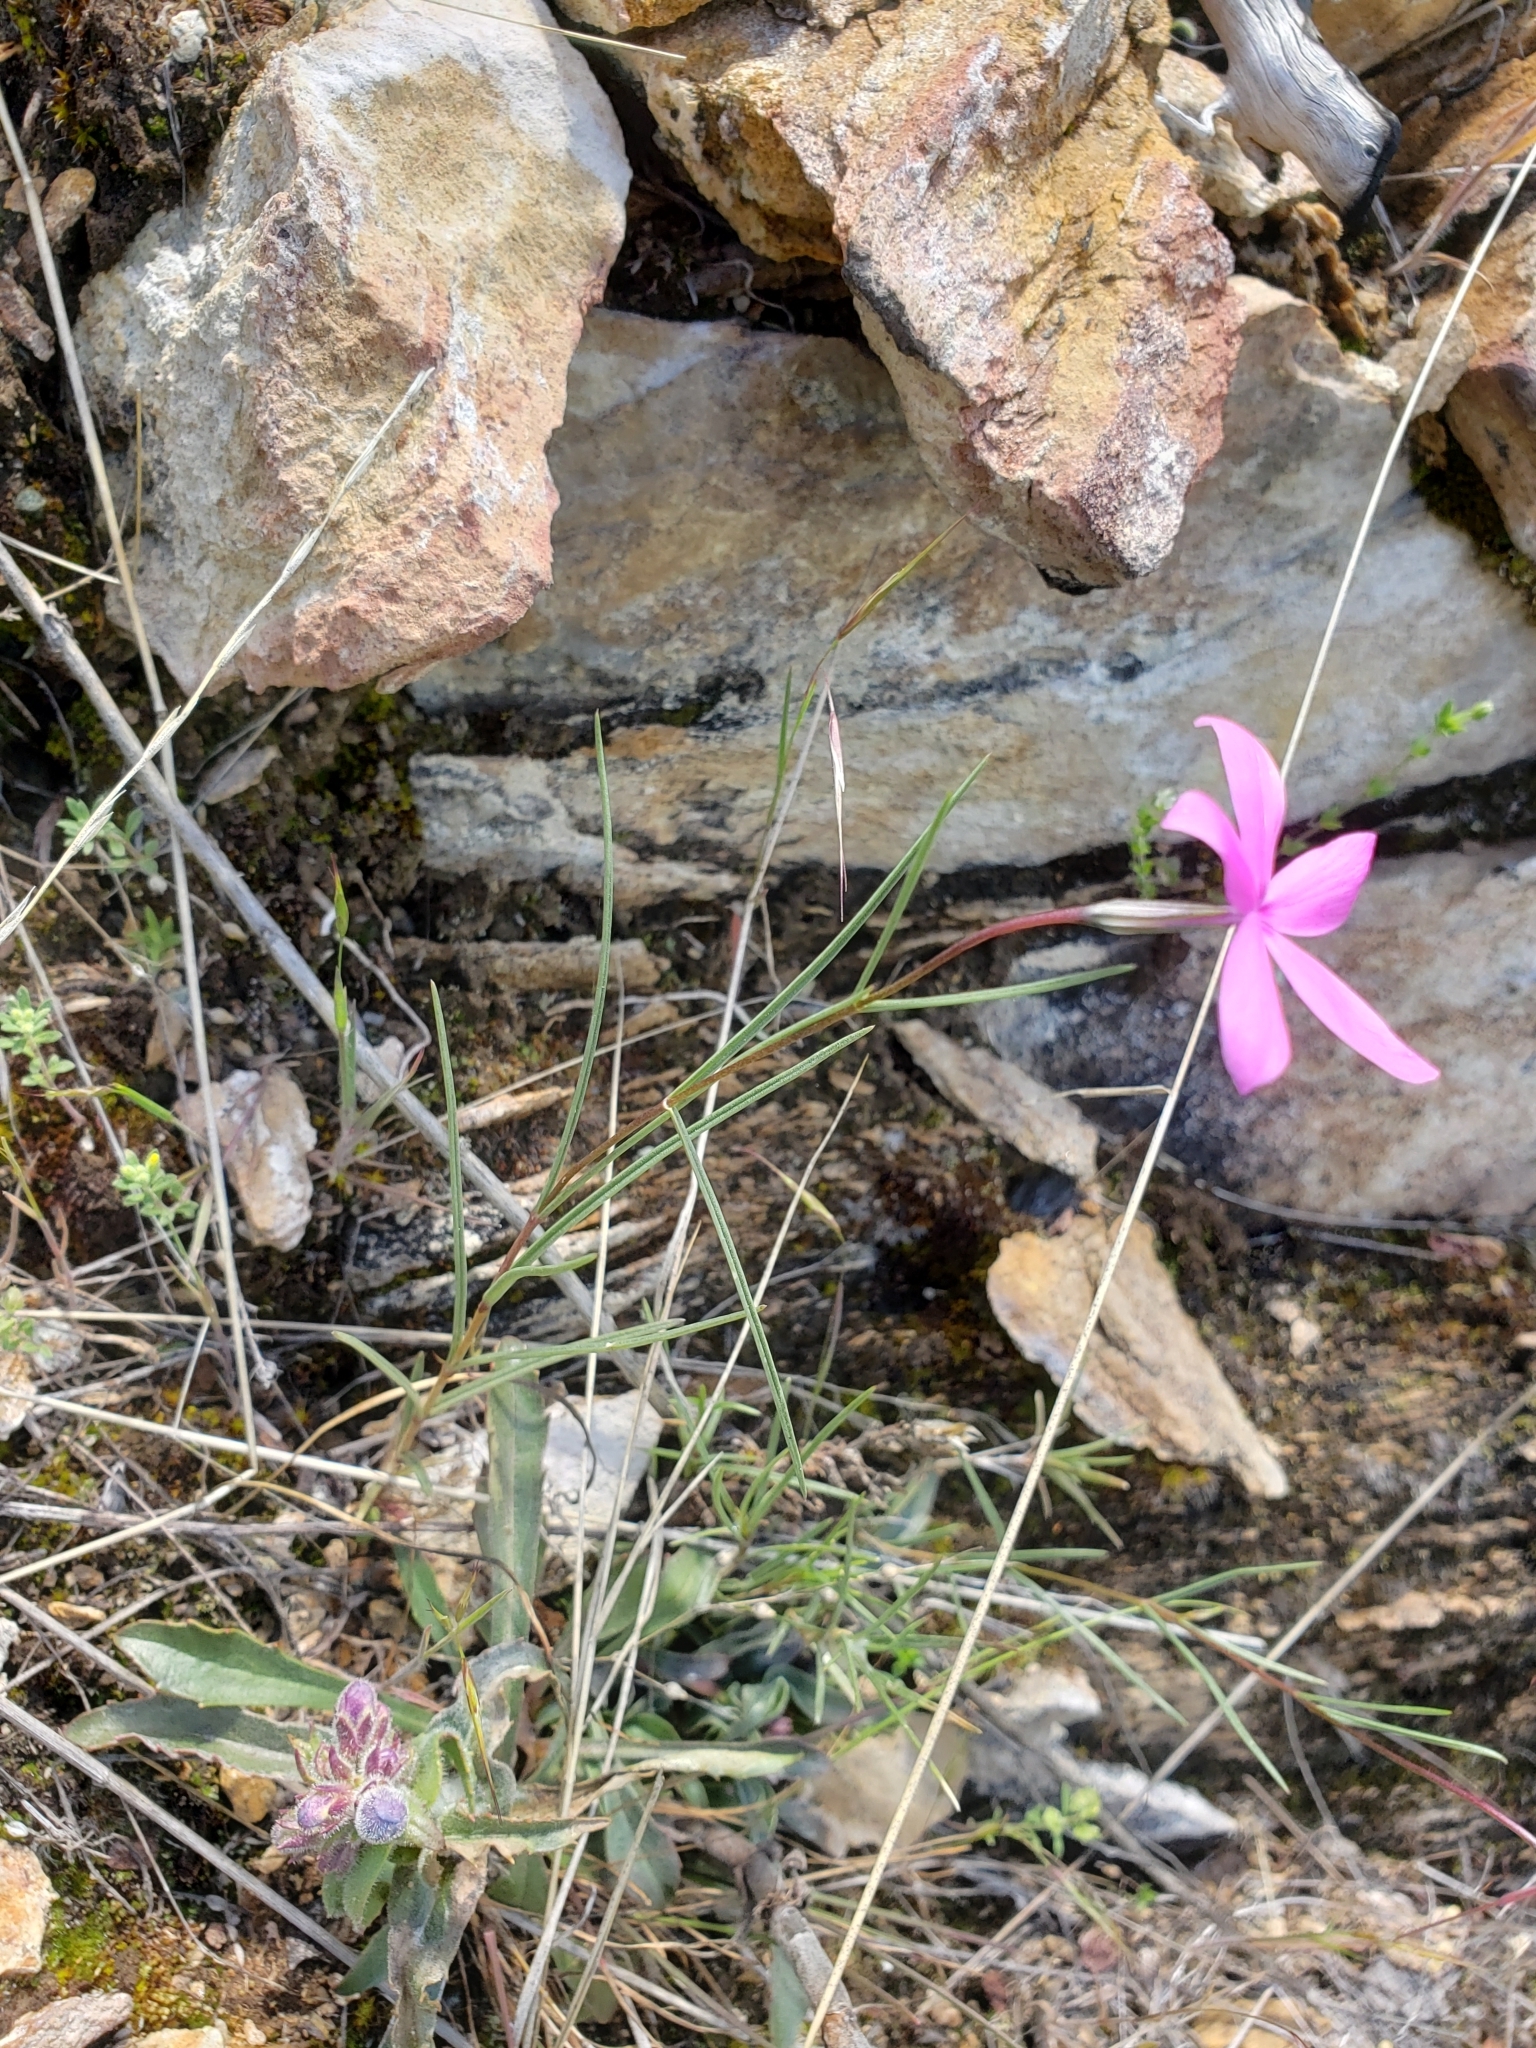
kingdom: Plantae
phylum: Tracheophyta
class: Magnoliopsida
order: Ericales
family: Polemoniaceae
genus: Phlox
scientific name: Phlox colubrina
